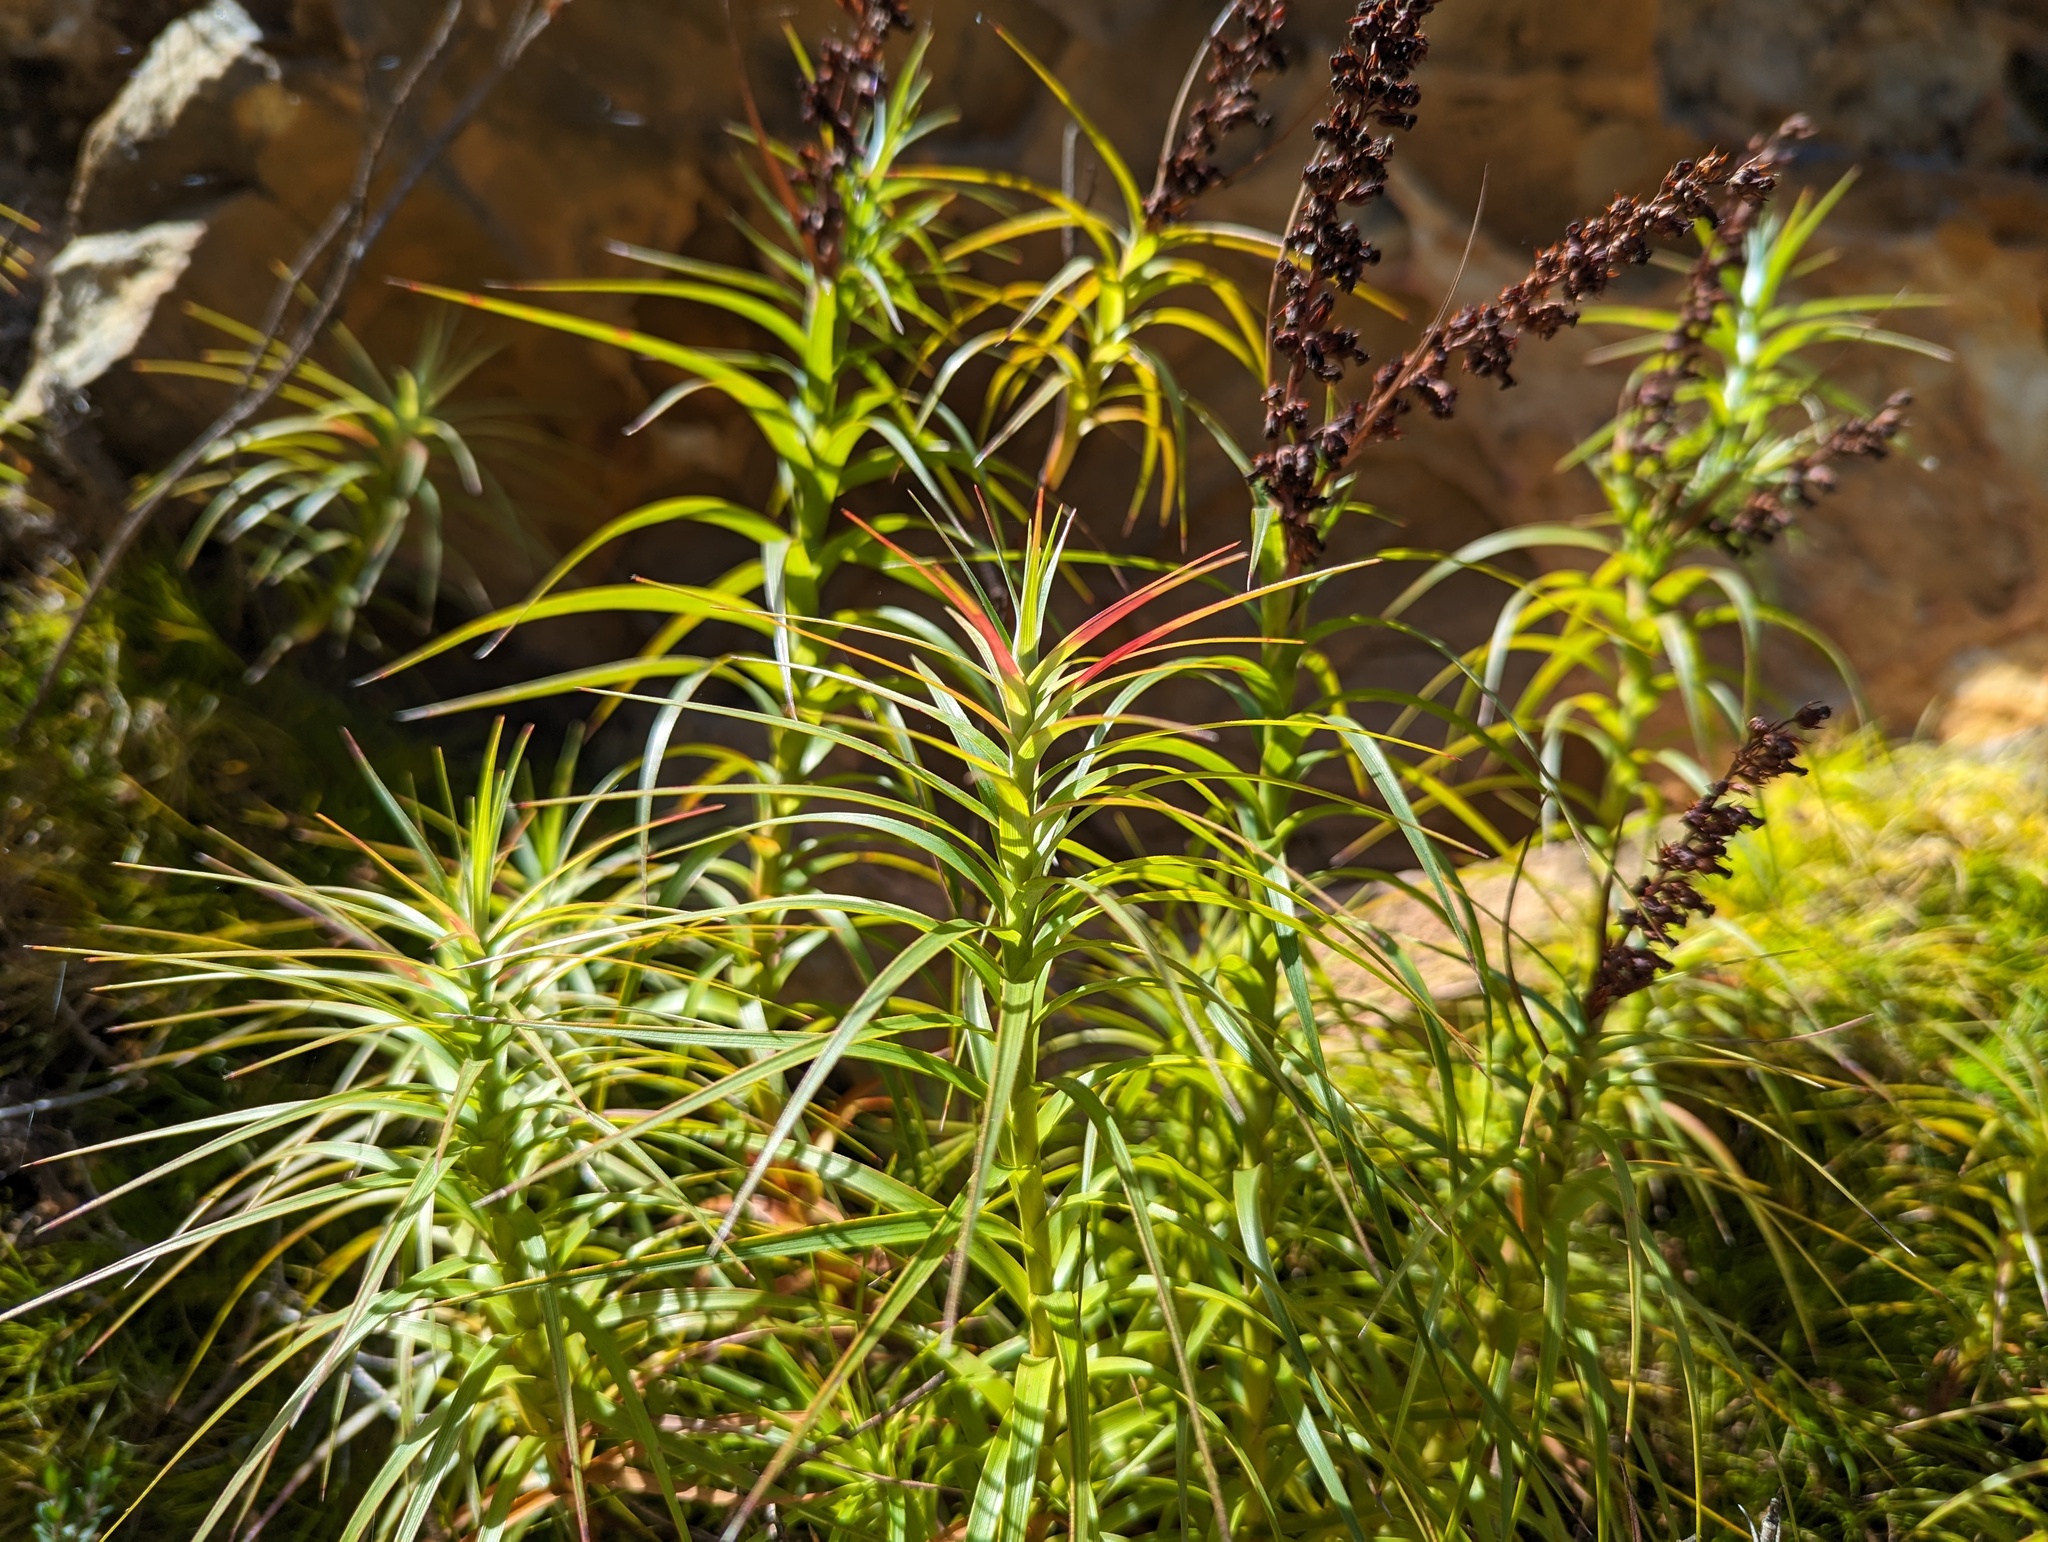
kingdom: Plantae
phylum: Tracheophyta
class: Magnoliopsida
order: Ericales
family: Ericaceae
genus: Dracophyllum
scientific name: Dracophyllum secundum
